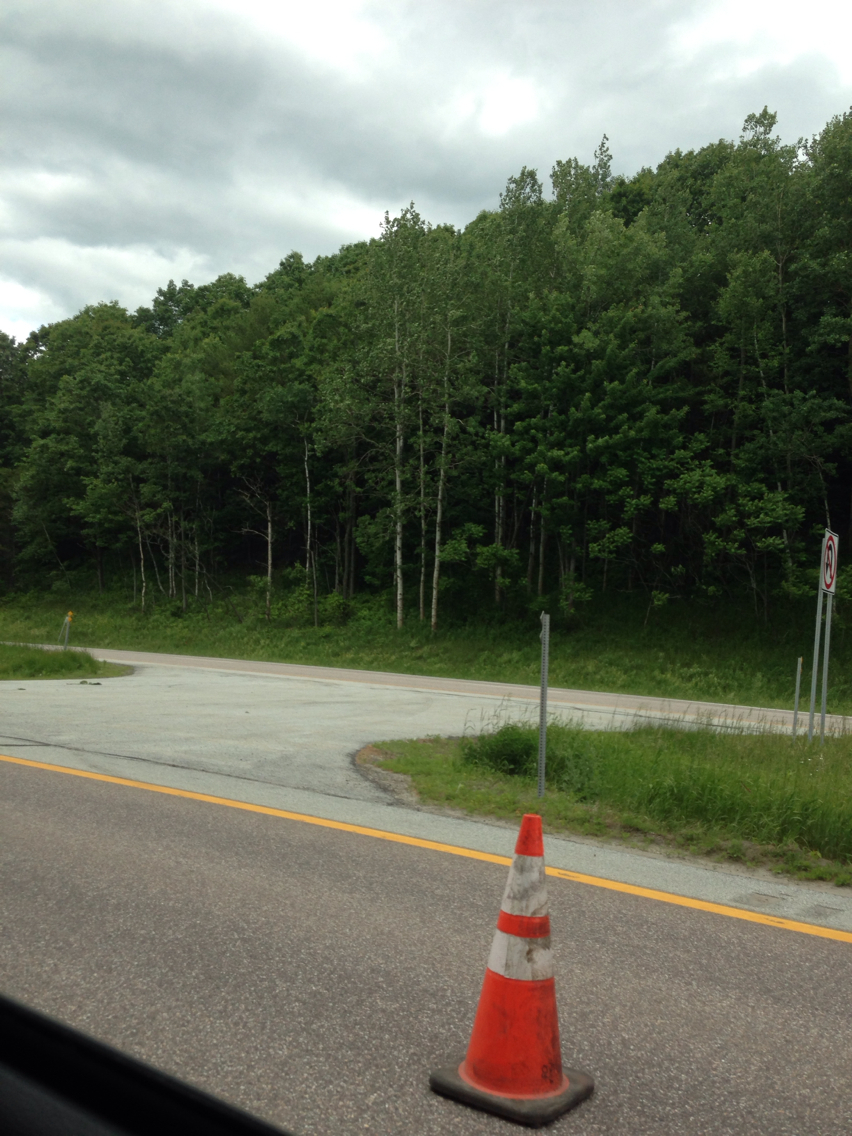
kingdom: Plantae
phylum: Tracheophyta
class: Magnoliopsida
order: Malpighiales
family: Salicaceae
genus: Populus
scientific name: Populus tremuloides
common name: Quaking aspen
